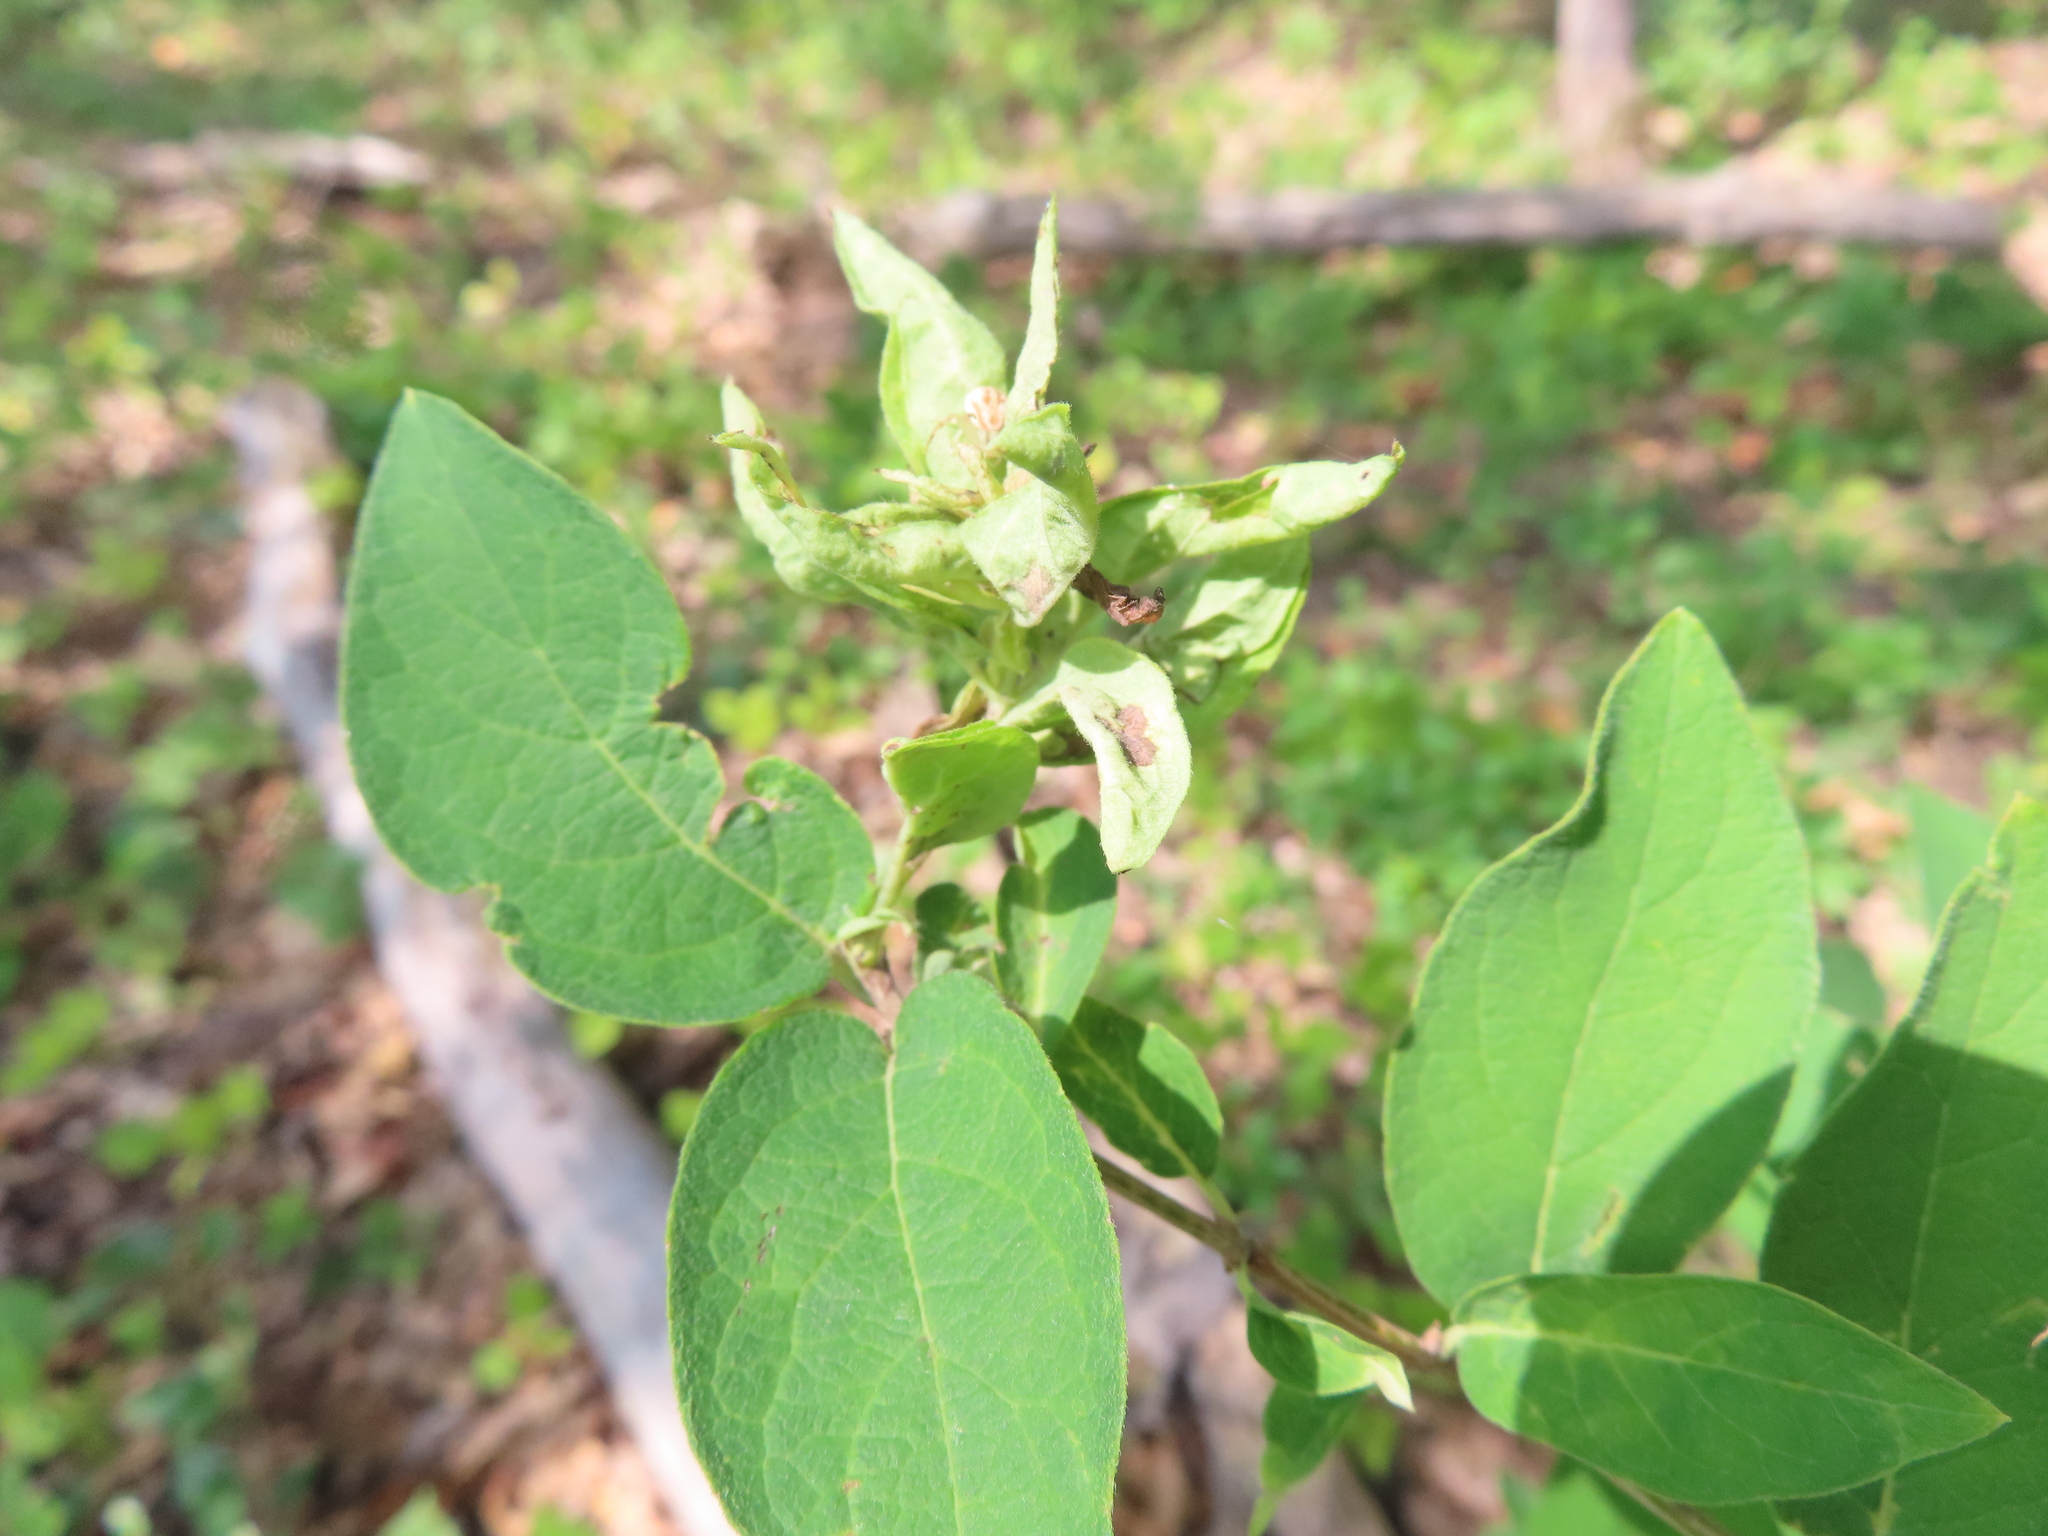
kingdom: Animalia
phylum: Arthropoda
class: Insecta
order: Hemiptera
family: Aphididae
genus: Hyadaphis
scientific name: Hyadaphis tataricae
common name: Honeysuckle witches' broom aphid
